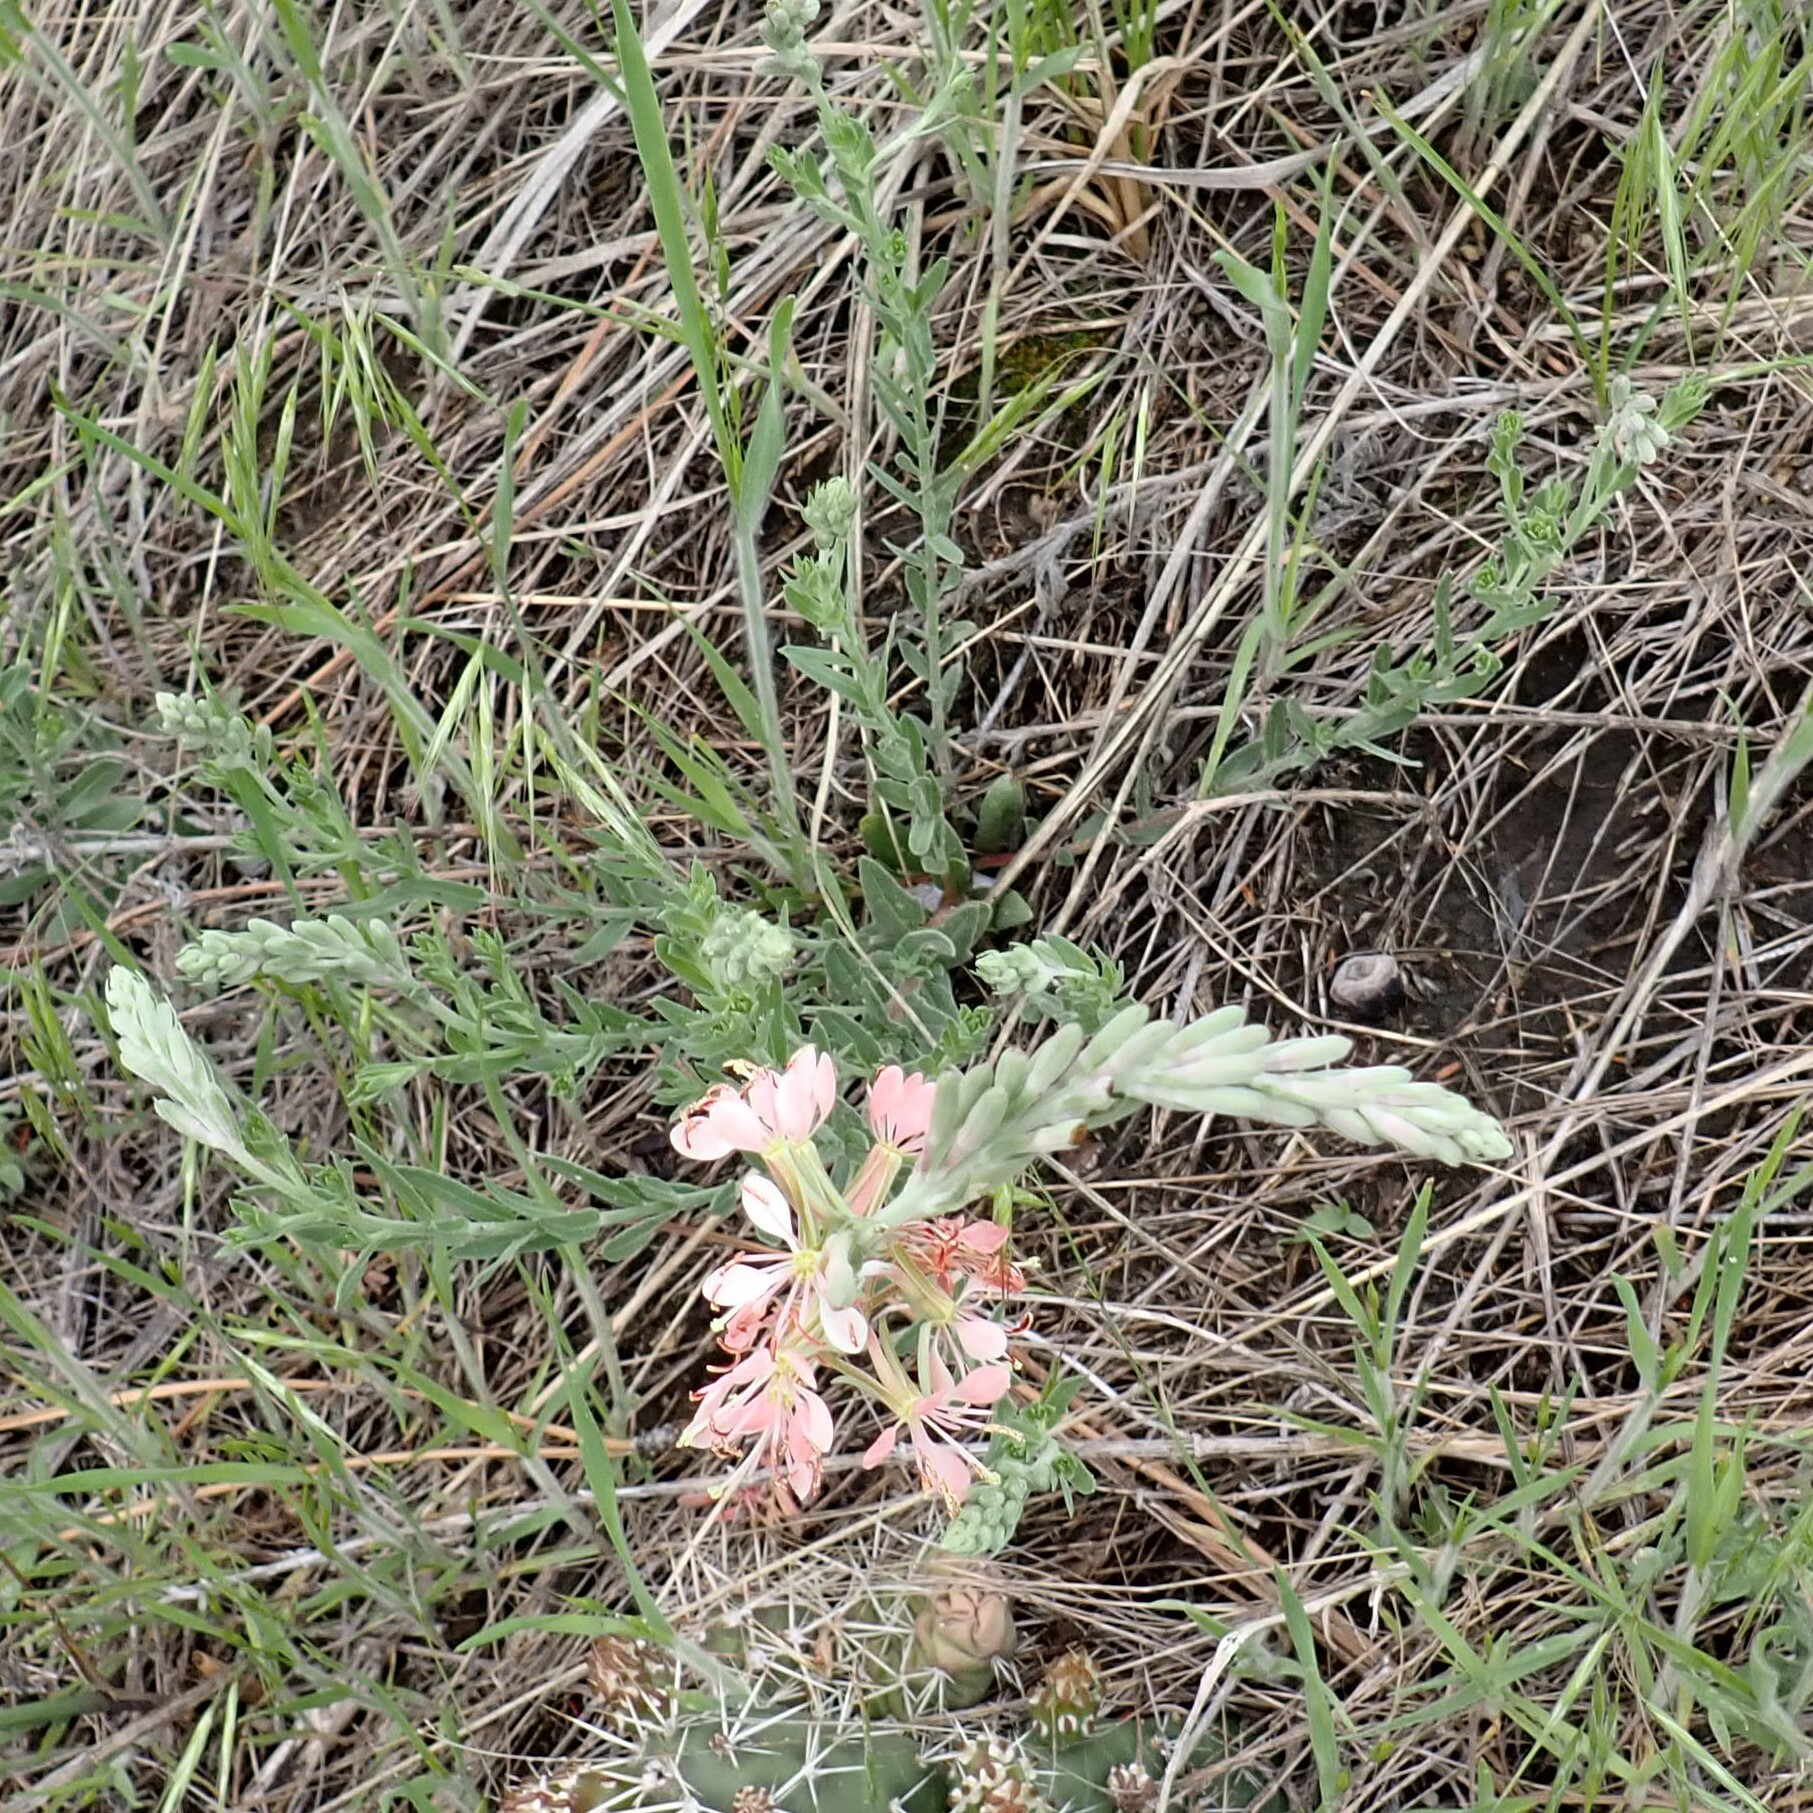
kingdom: Plantae
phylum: Tracheophyta
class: Magnoliopsida
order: Myrtales
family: Onagraceae
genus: Oenothera
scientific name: Oenothera suffrutescens
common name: Scarlet beeblossom
